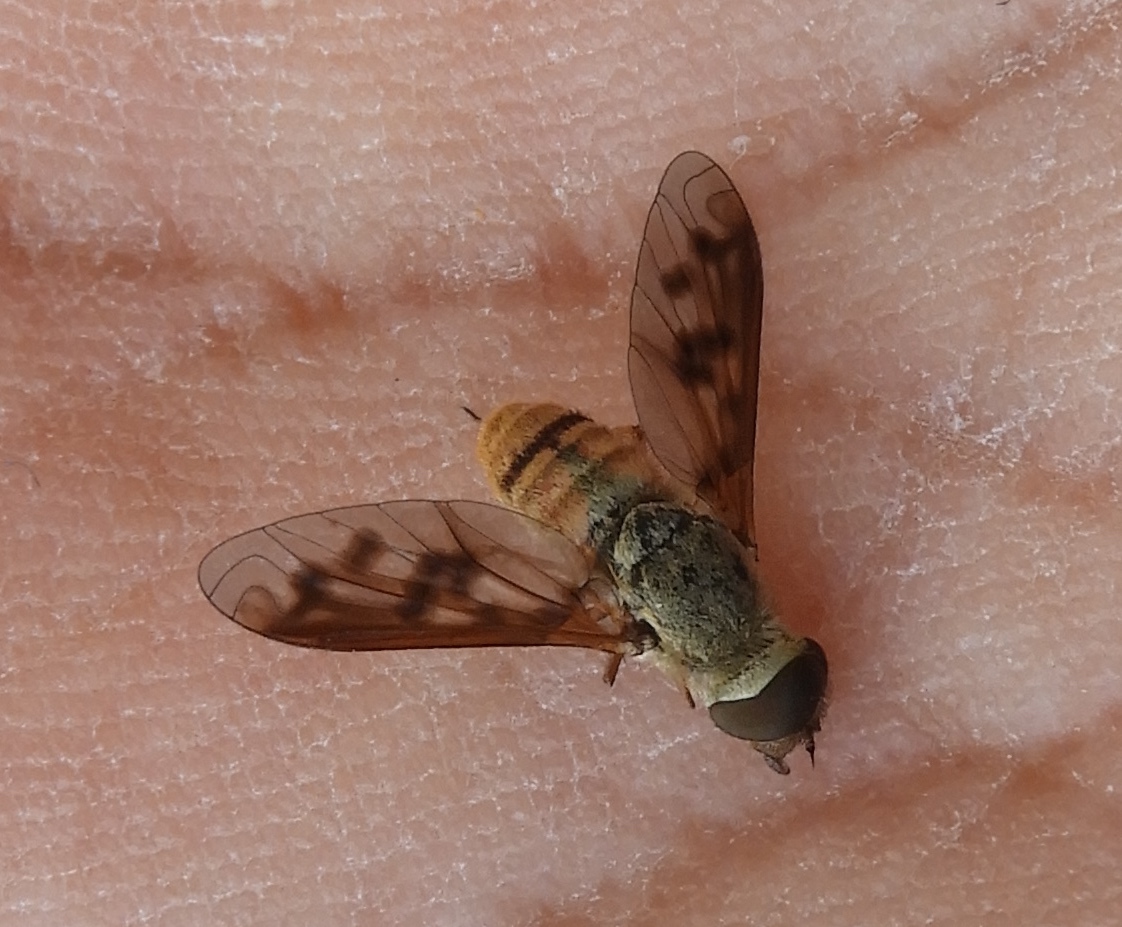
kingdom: Animalia
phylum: Arthropoda
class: Insecta
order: Diptera
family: Bombyliidae
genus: Neodiplocampta
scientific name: Neodiplocampta
